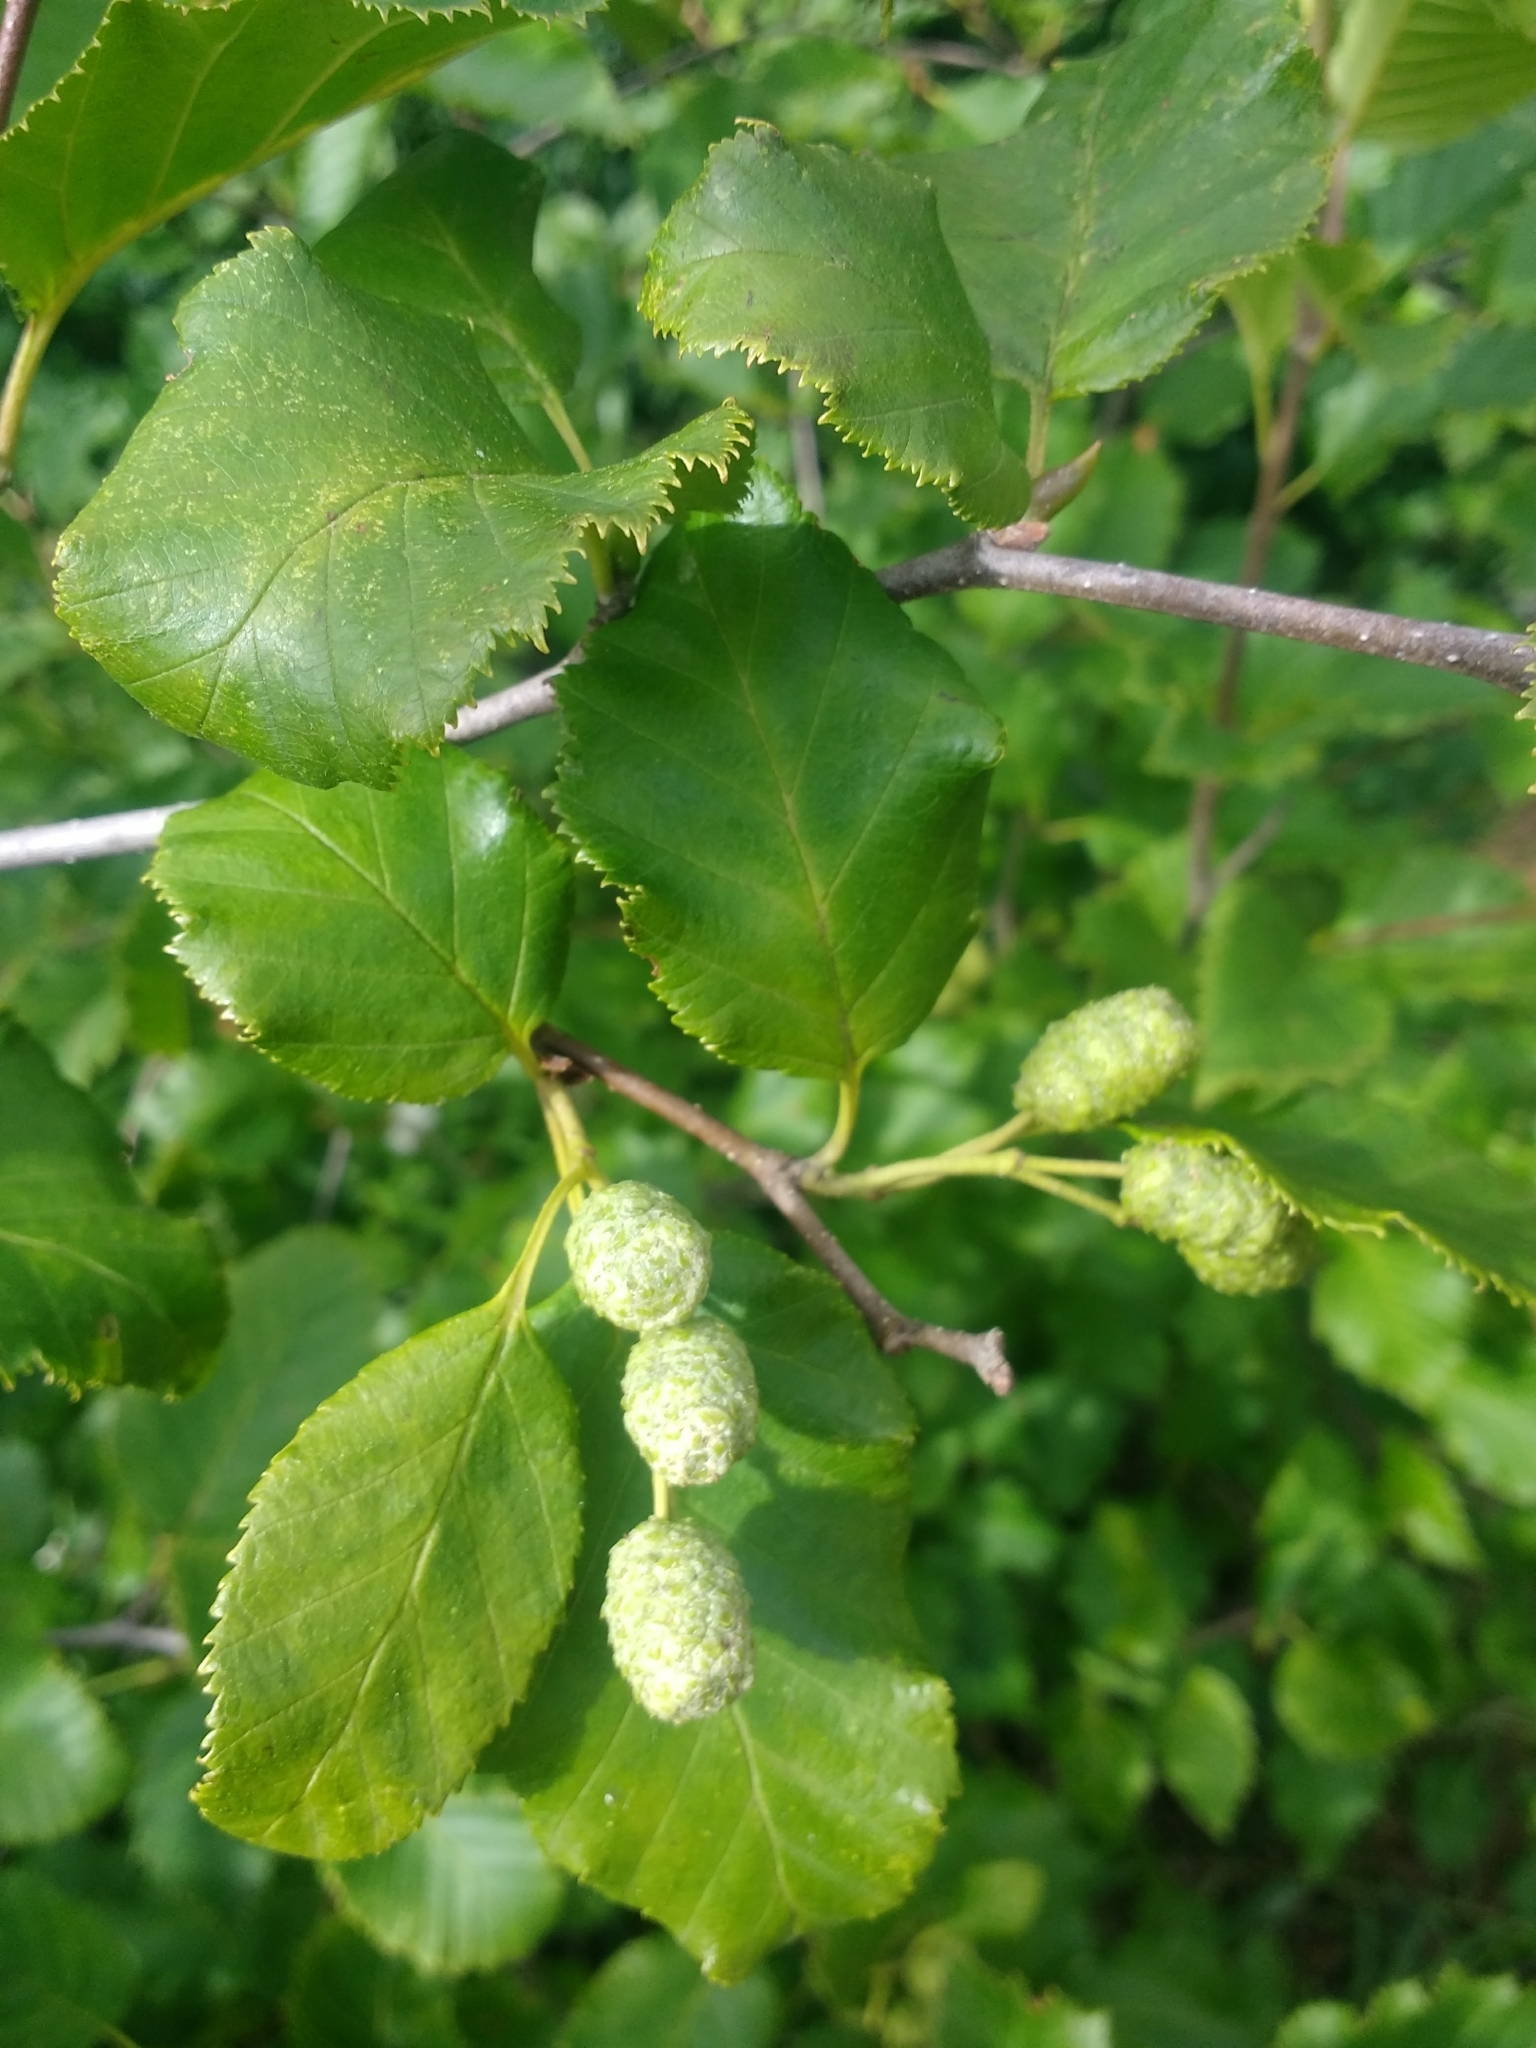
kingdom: Plantae
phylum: Tracheophyta
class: Magnoliopsida
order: Fagales
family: Betulaceae
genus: Alnus
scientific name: Alnus alnobetula
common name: Green alder
